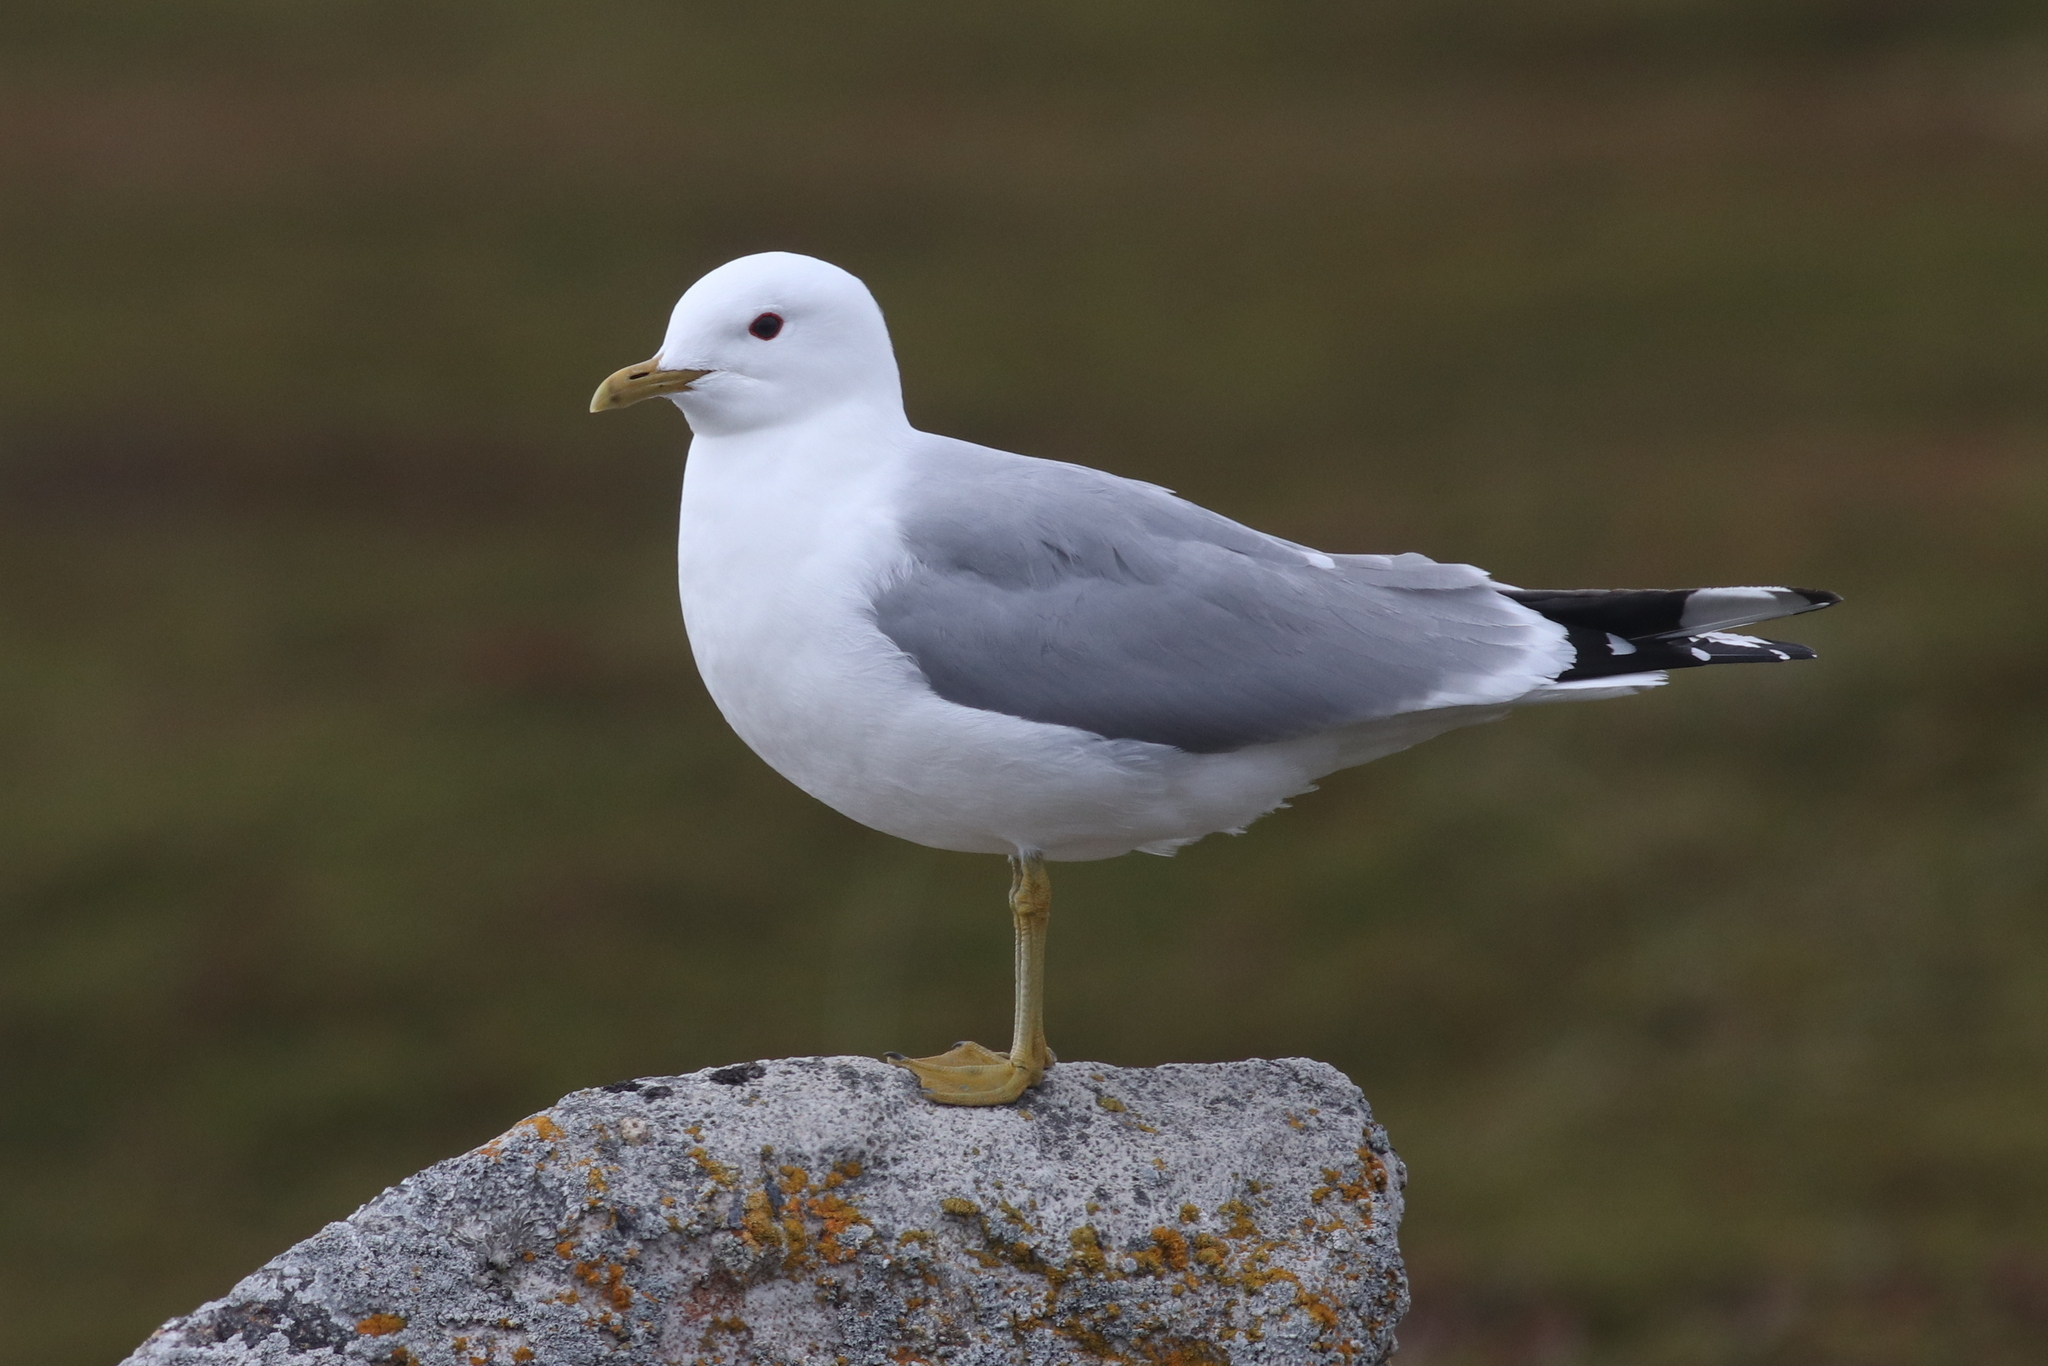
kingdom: Animalia
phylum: Chordata
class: Aves
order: Charadriiformes
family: Laridae
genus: Larus
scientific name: Larus canus
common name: Mew gull
